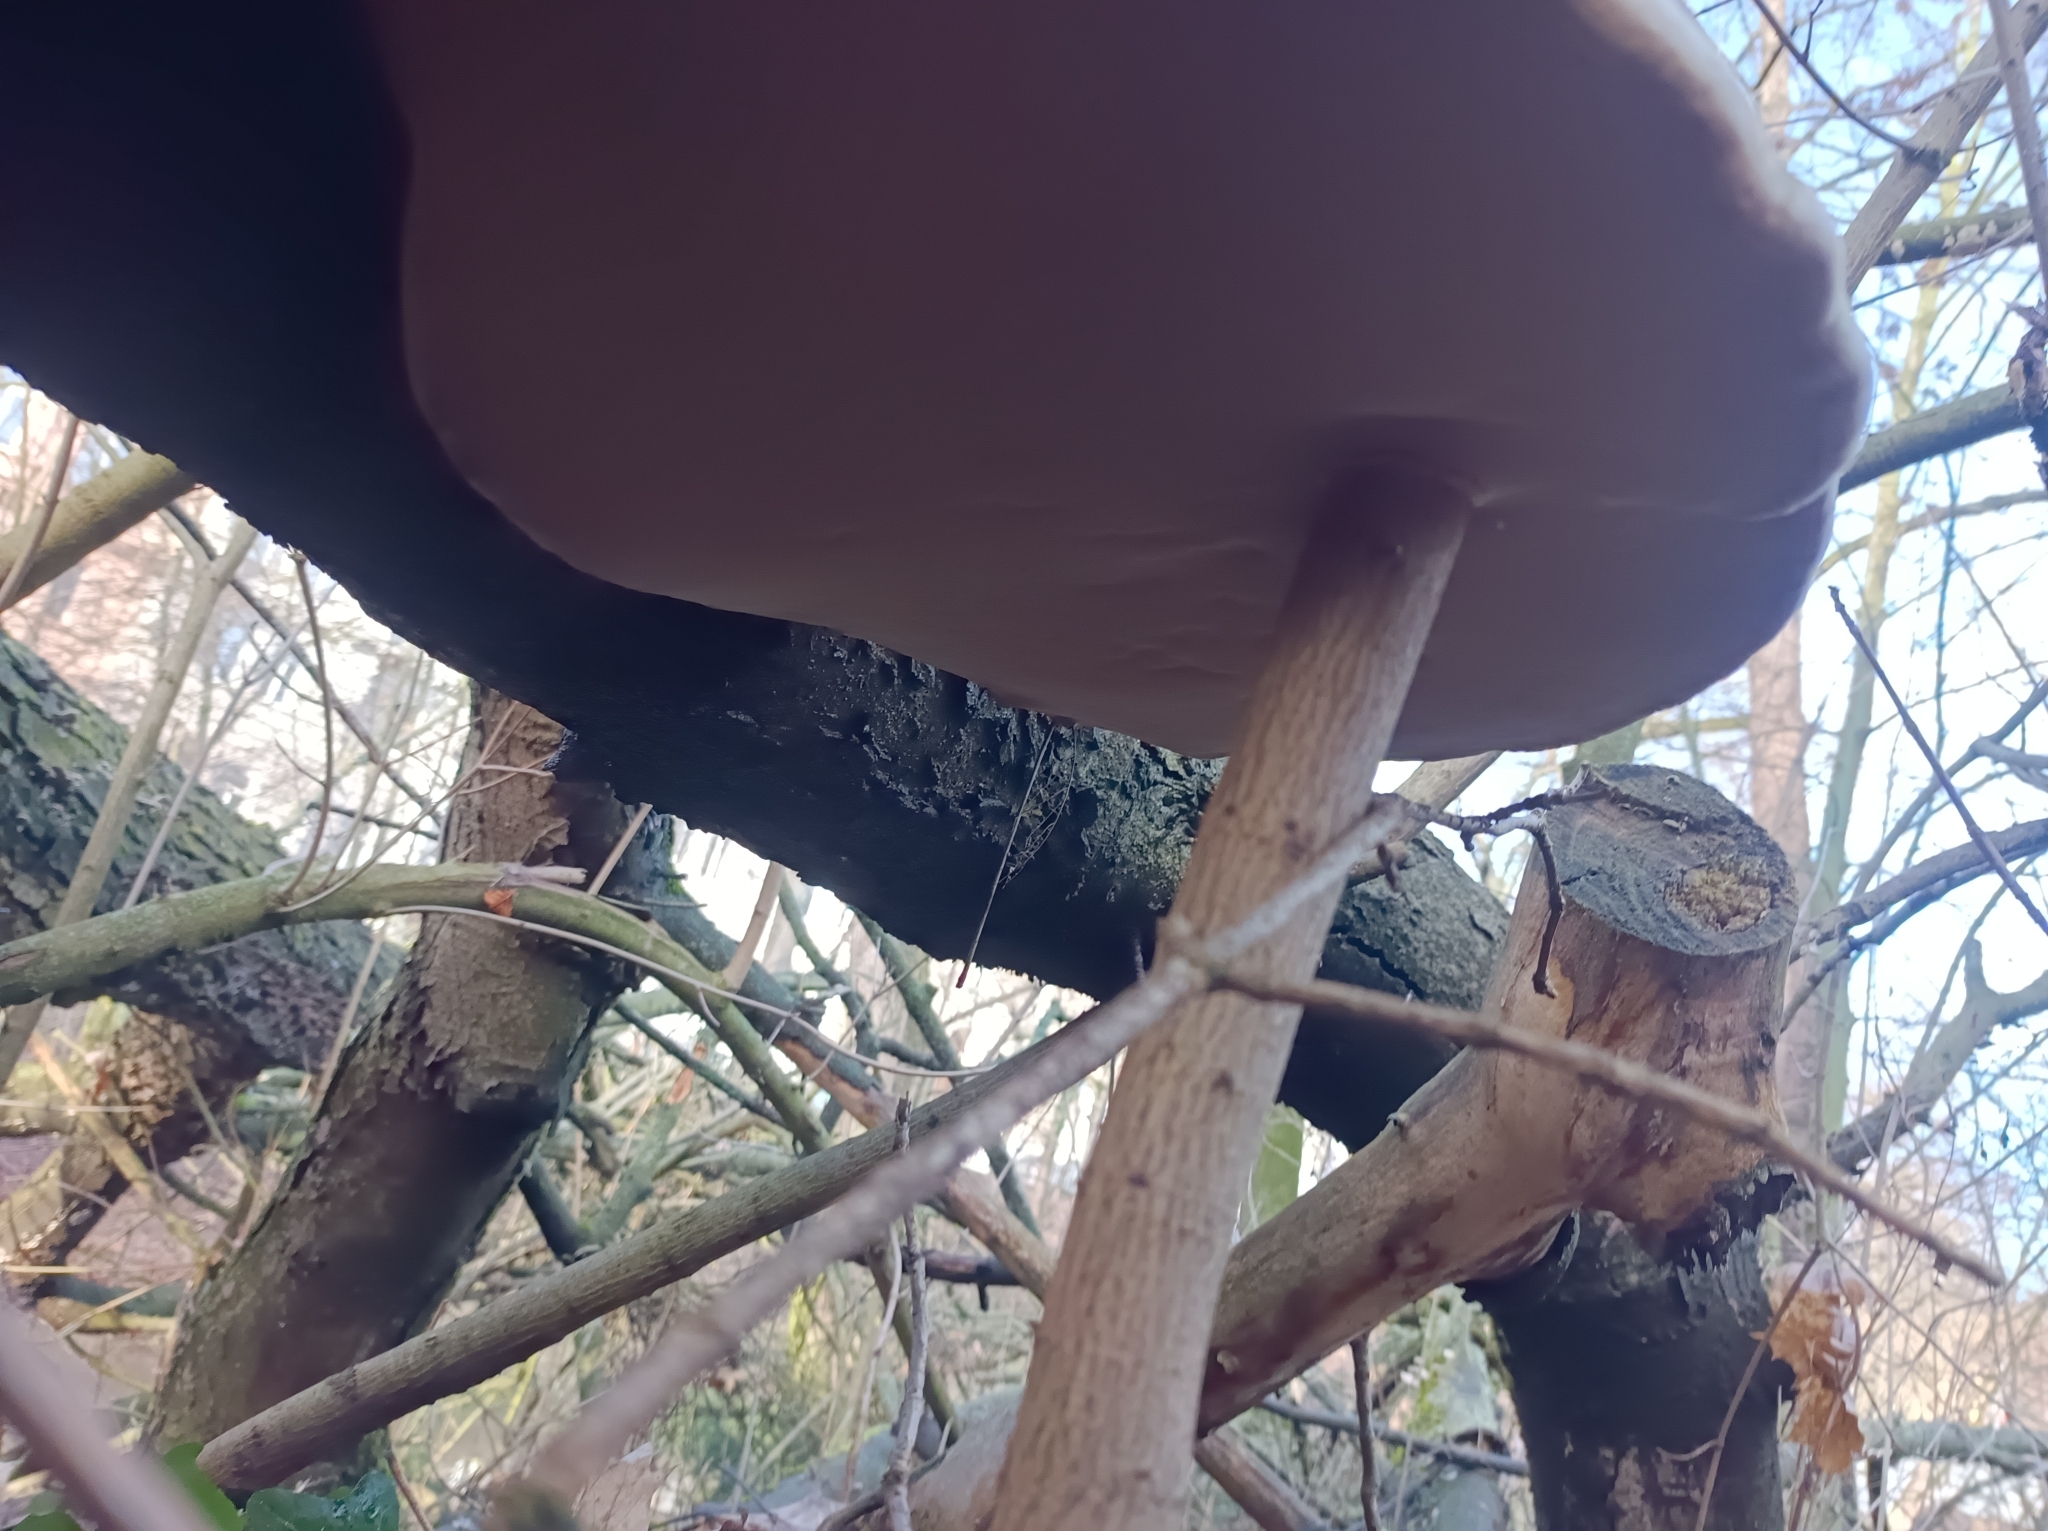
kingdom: Fungi
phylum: Basidiomycota
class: Agaricomycetes
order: Polyporales
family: Polyporaceae
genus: Fomes
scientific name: Fomes fomentarius
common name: Hoof fungus
